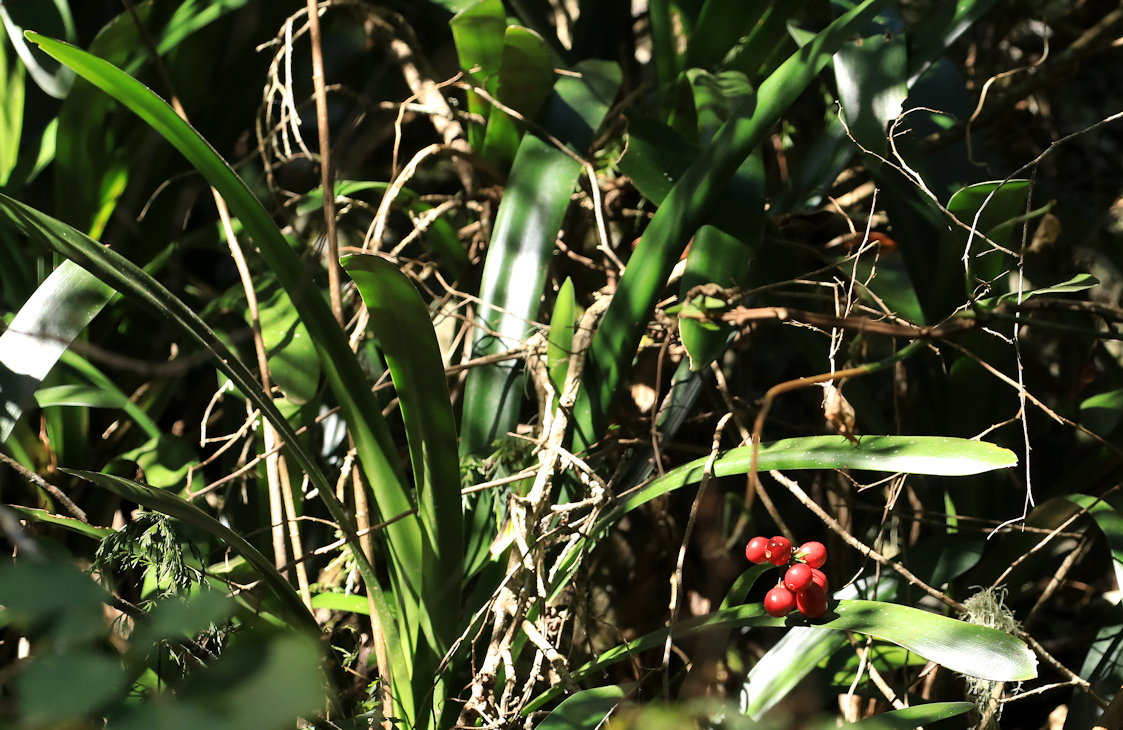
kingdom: Plantae
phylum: Tracheophyta
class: Liliopsida
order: Asparagales
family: Amaryllidaceae
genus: Clivia
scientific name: Clivia caulescens
